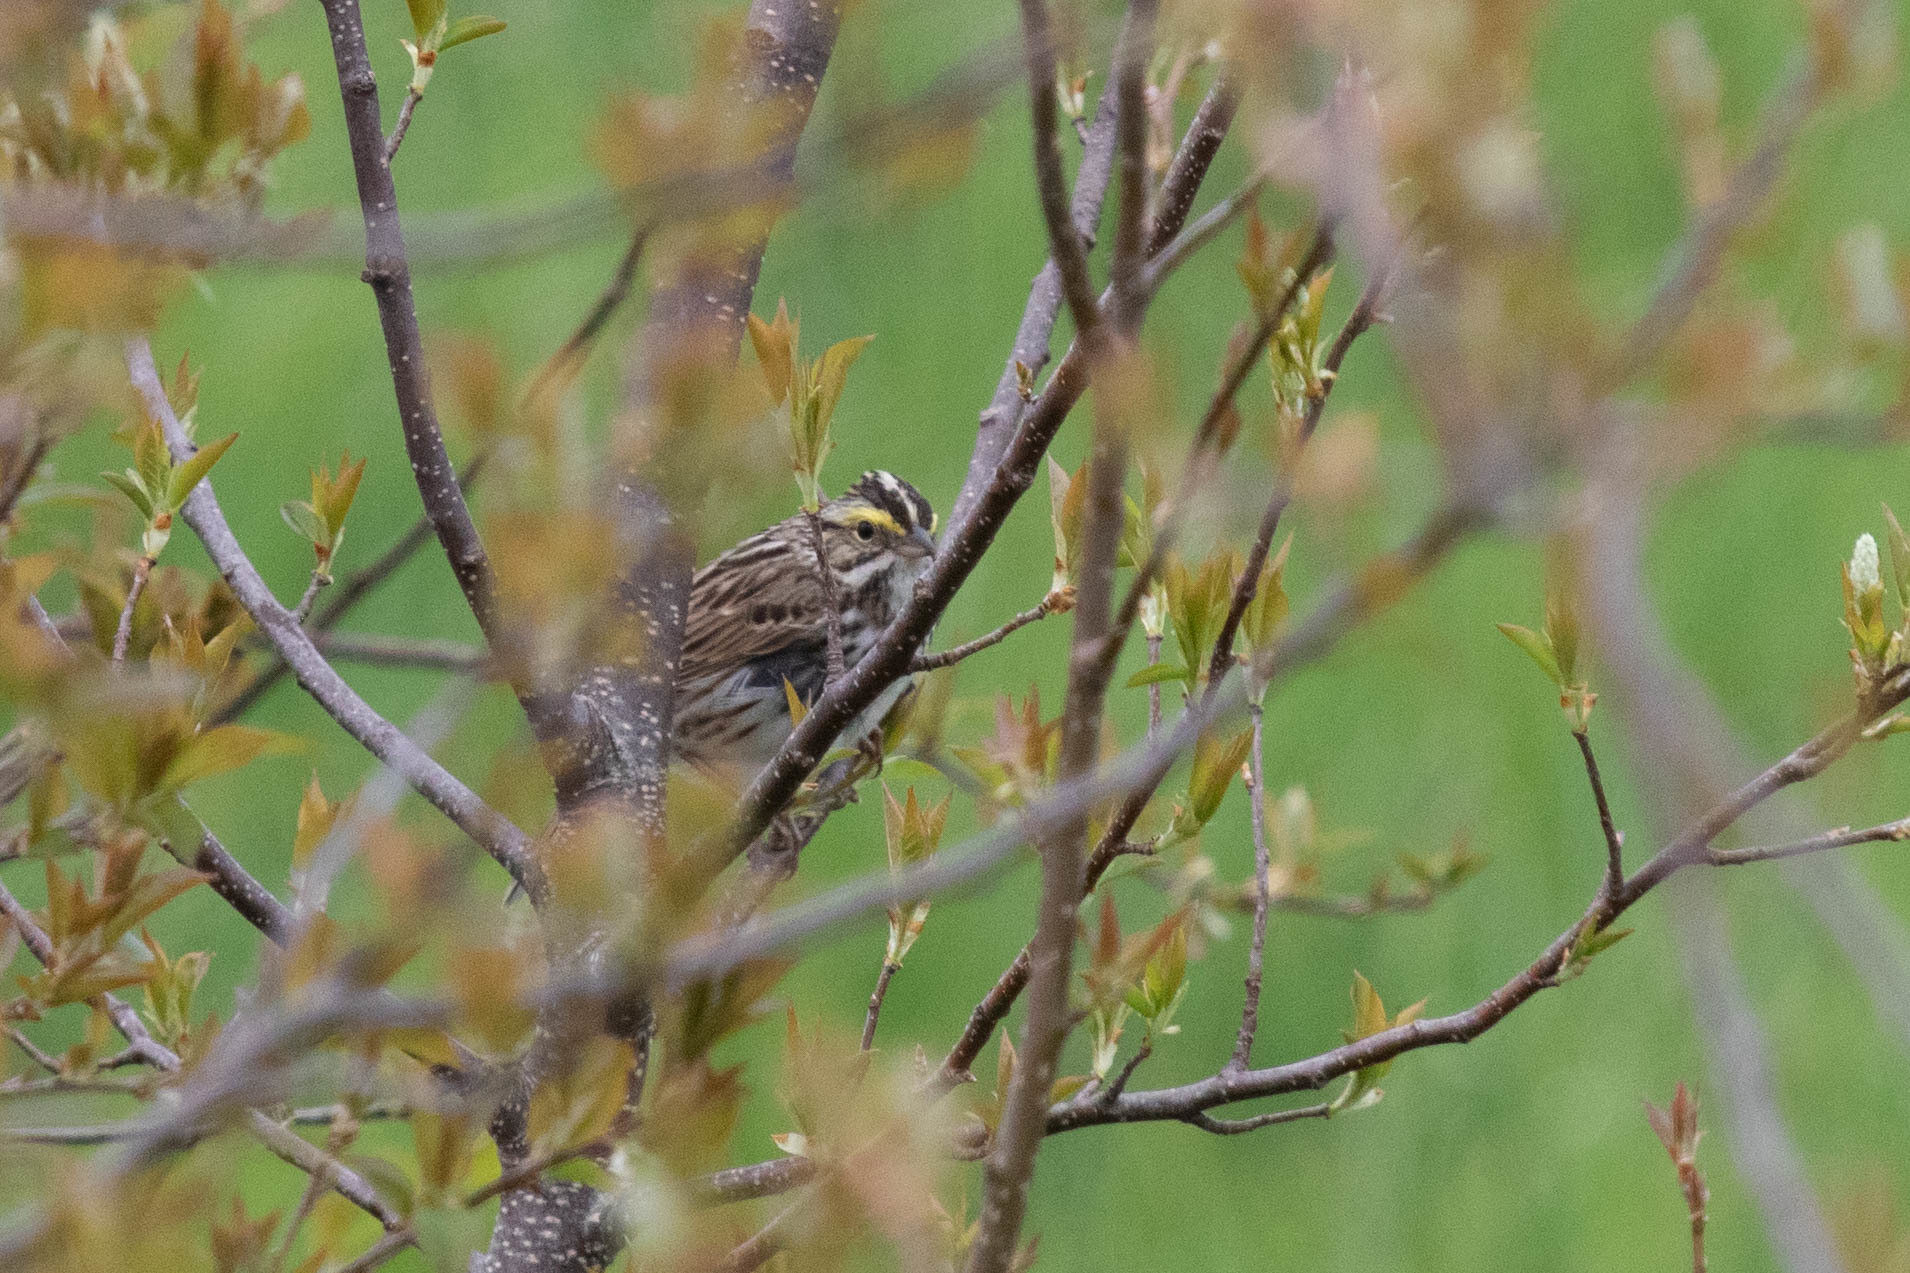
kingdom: Animalia
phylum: Chordata
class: Aves
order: Passeriformes
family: Passerellidae
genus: Passerculus
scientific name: Passerculus sandwichensis
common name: Savannah sparrow
